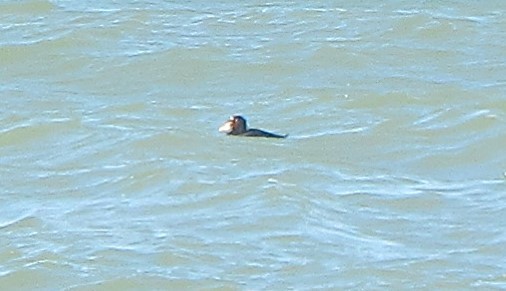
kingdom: Animalia
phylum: Chordata
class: Aves
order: Anseriformes
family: Anatidae
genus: Melanitta
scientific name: Melanitta perspicillata
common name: Surf scoter
